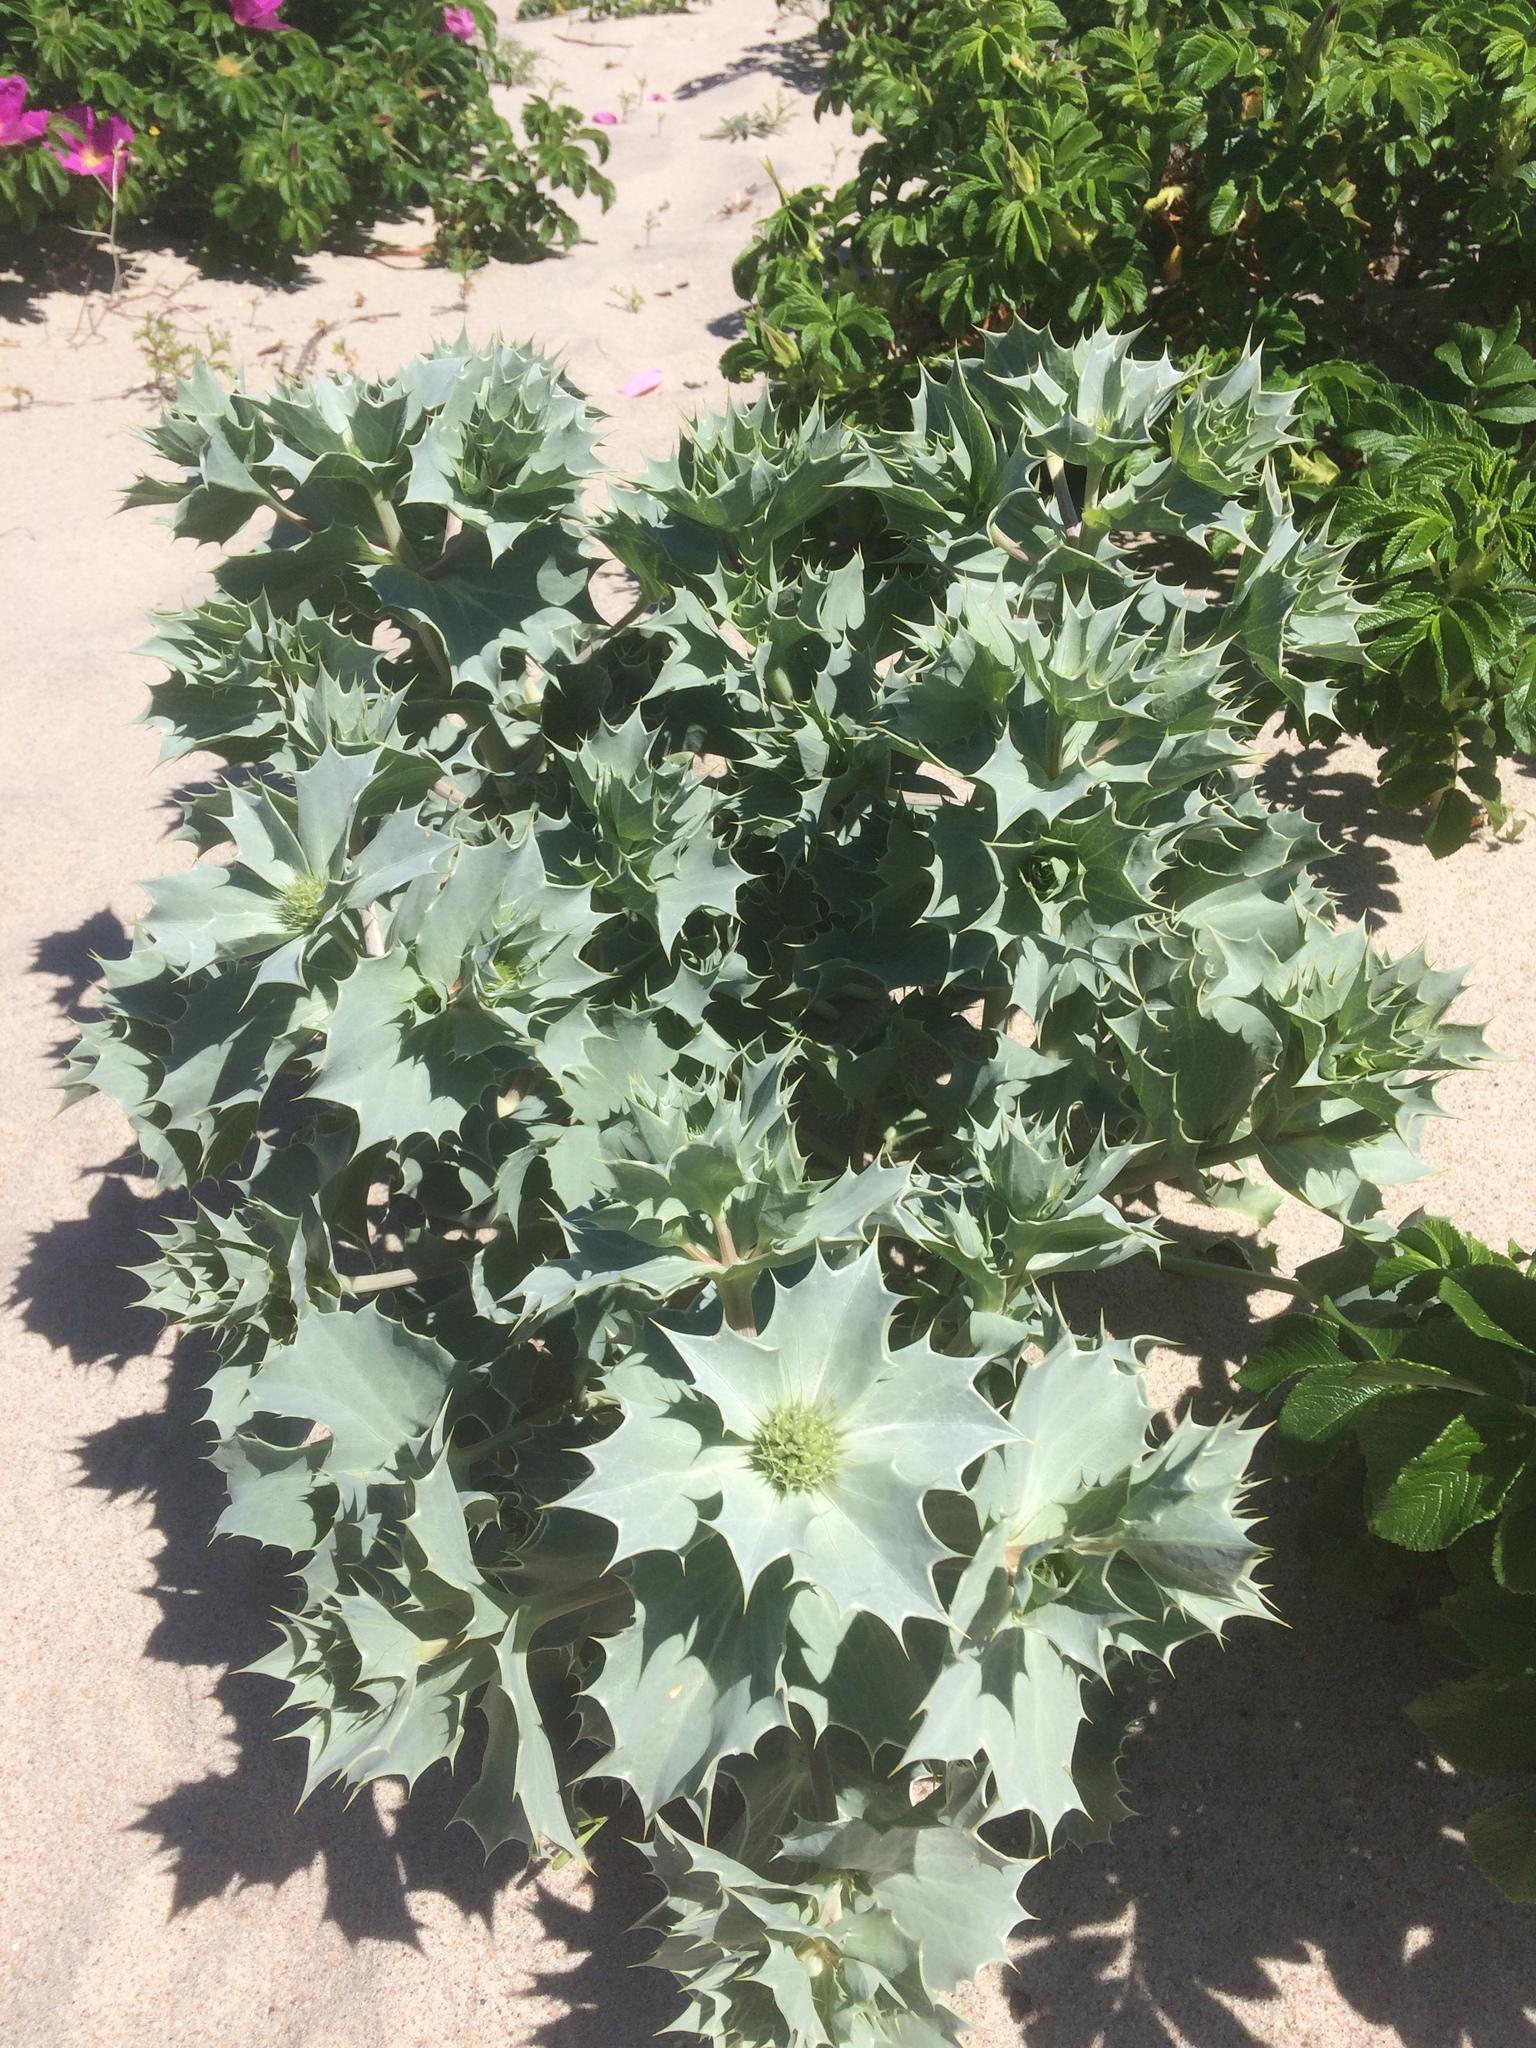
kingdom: Plantae
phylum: Tracheophyta
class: Magnoliopsida
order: Apiales
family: Apiaceae
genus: Eryngium
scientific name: Eryngium maritimum
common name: Sea-holly
